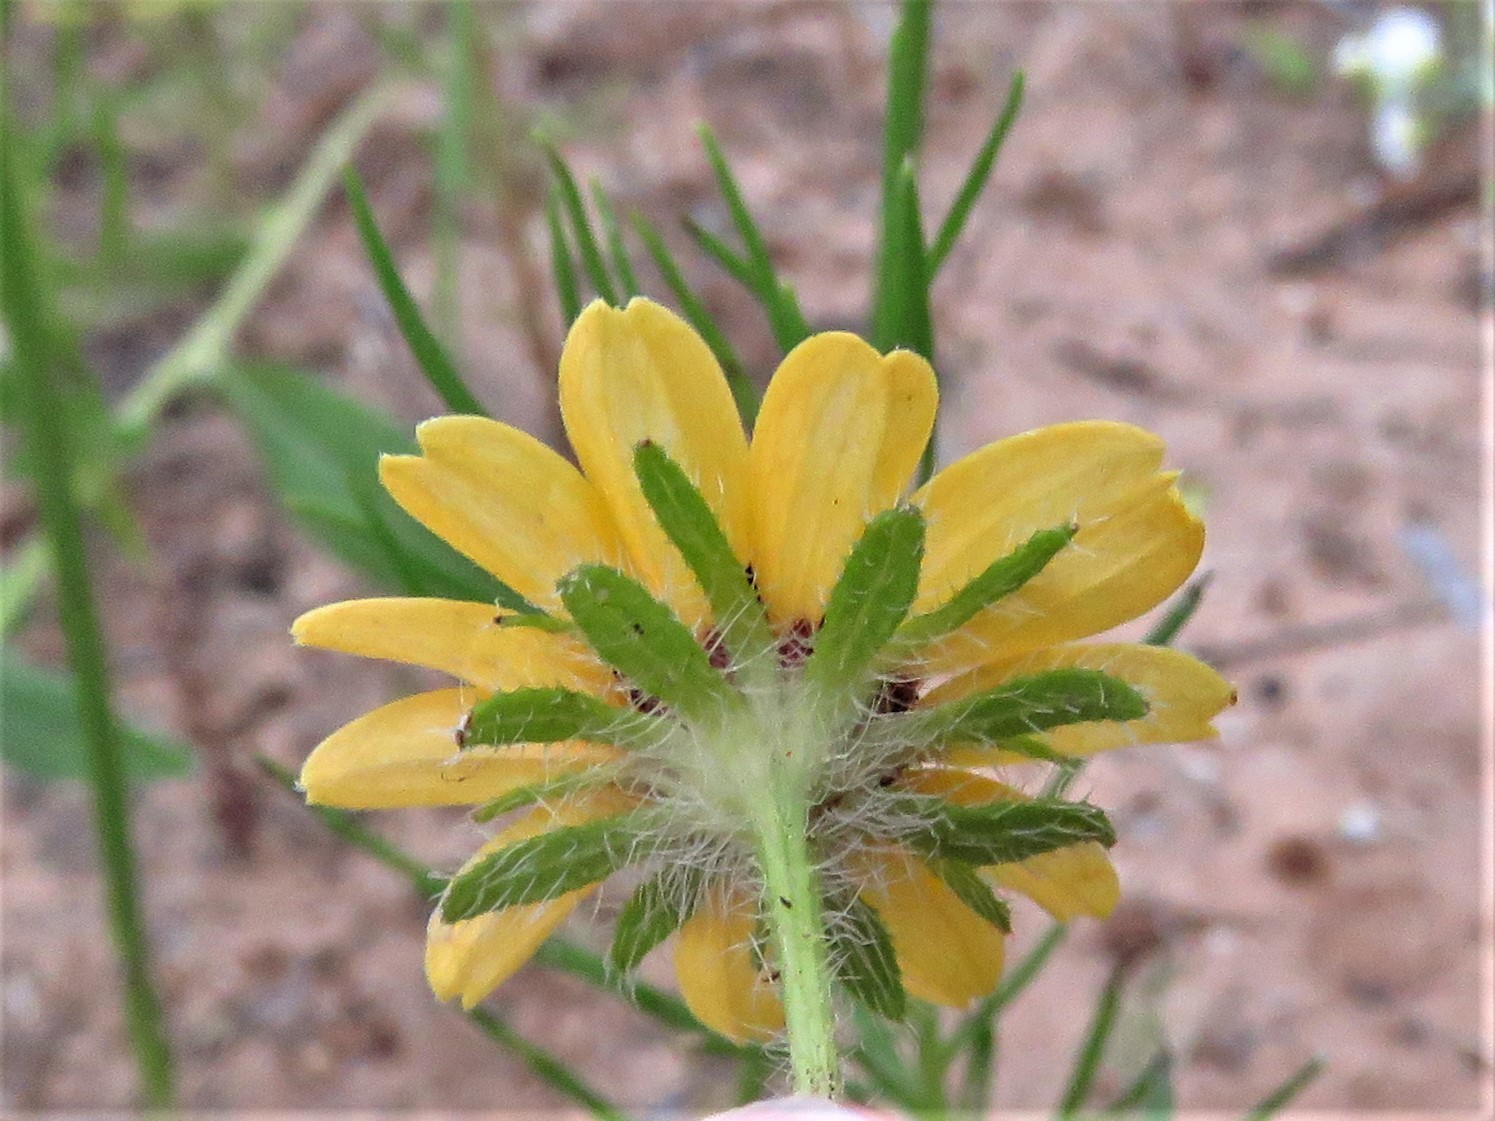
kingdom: Plantae
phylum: Tracheophyta
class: Magnoliopsida
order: Asterales
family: Asteraceae
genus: Rudbeckia
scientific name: Rudbeckia hirta
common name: Black-eyed-susan
